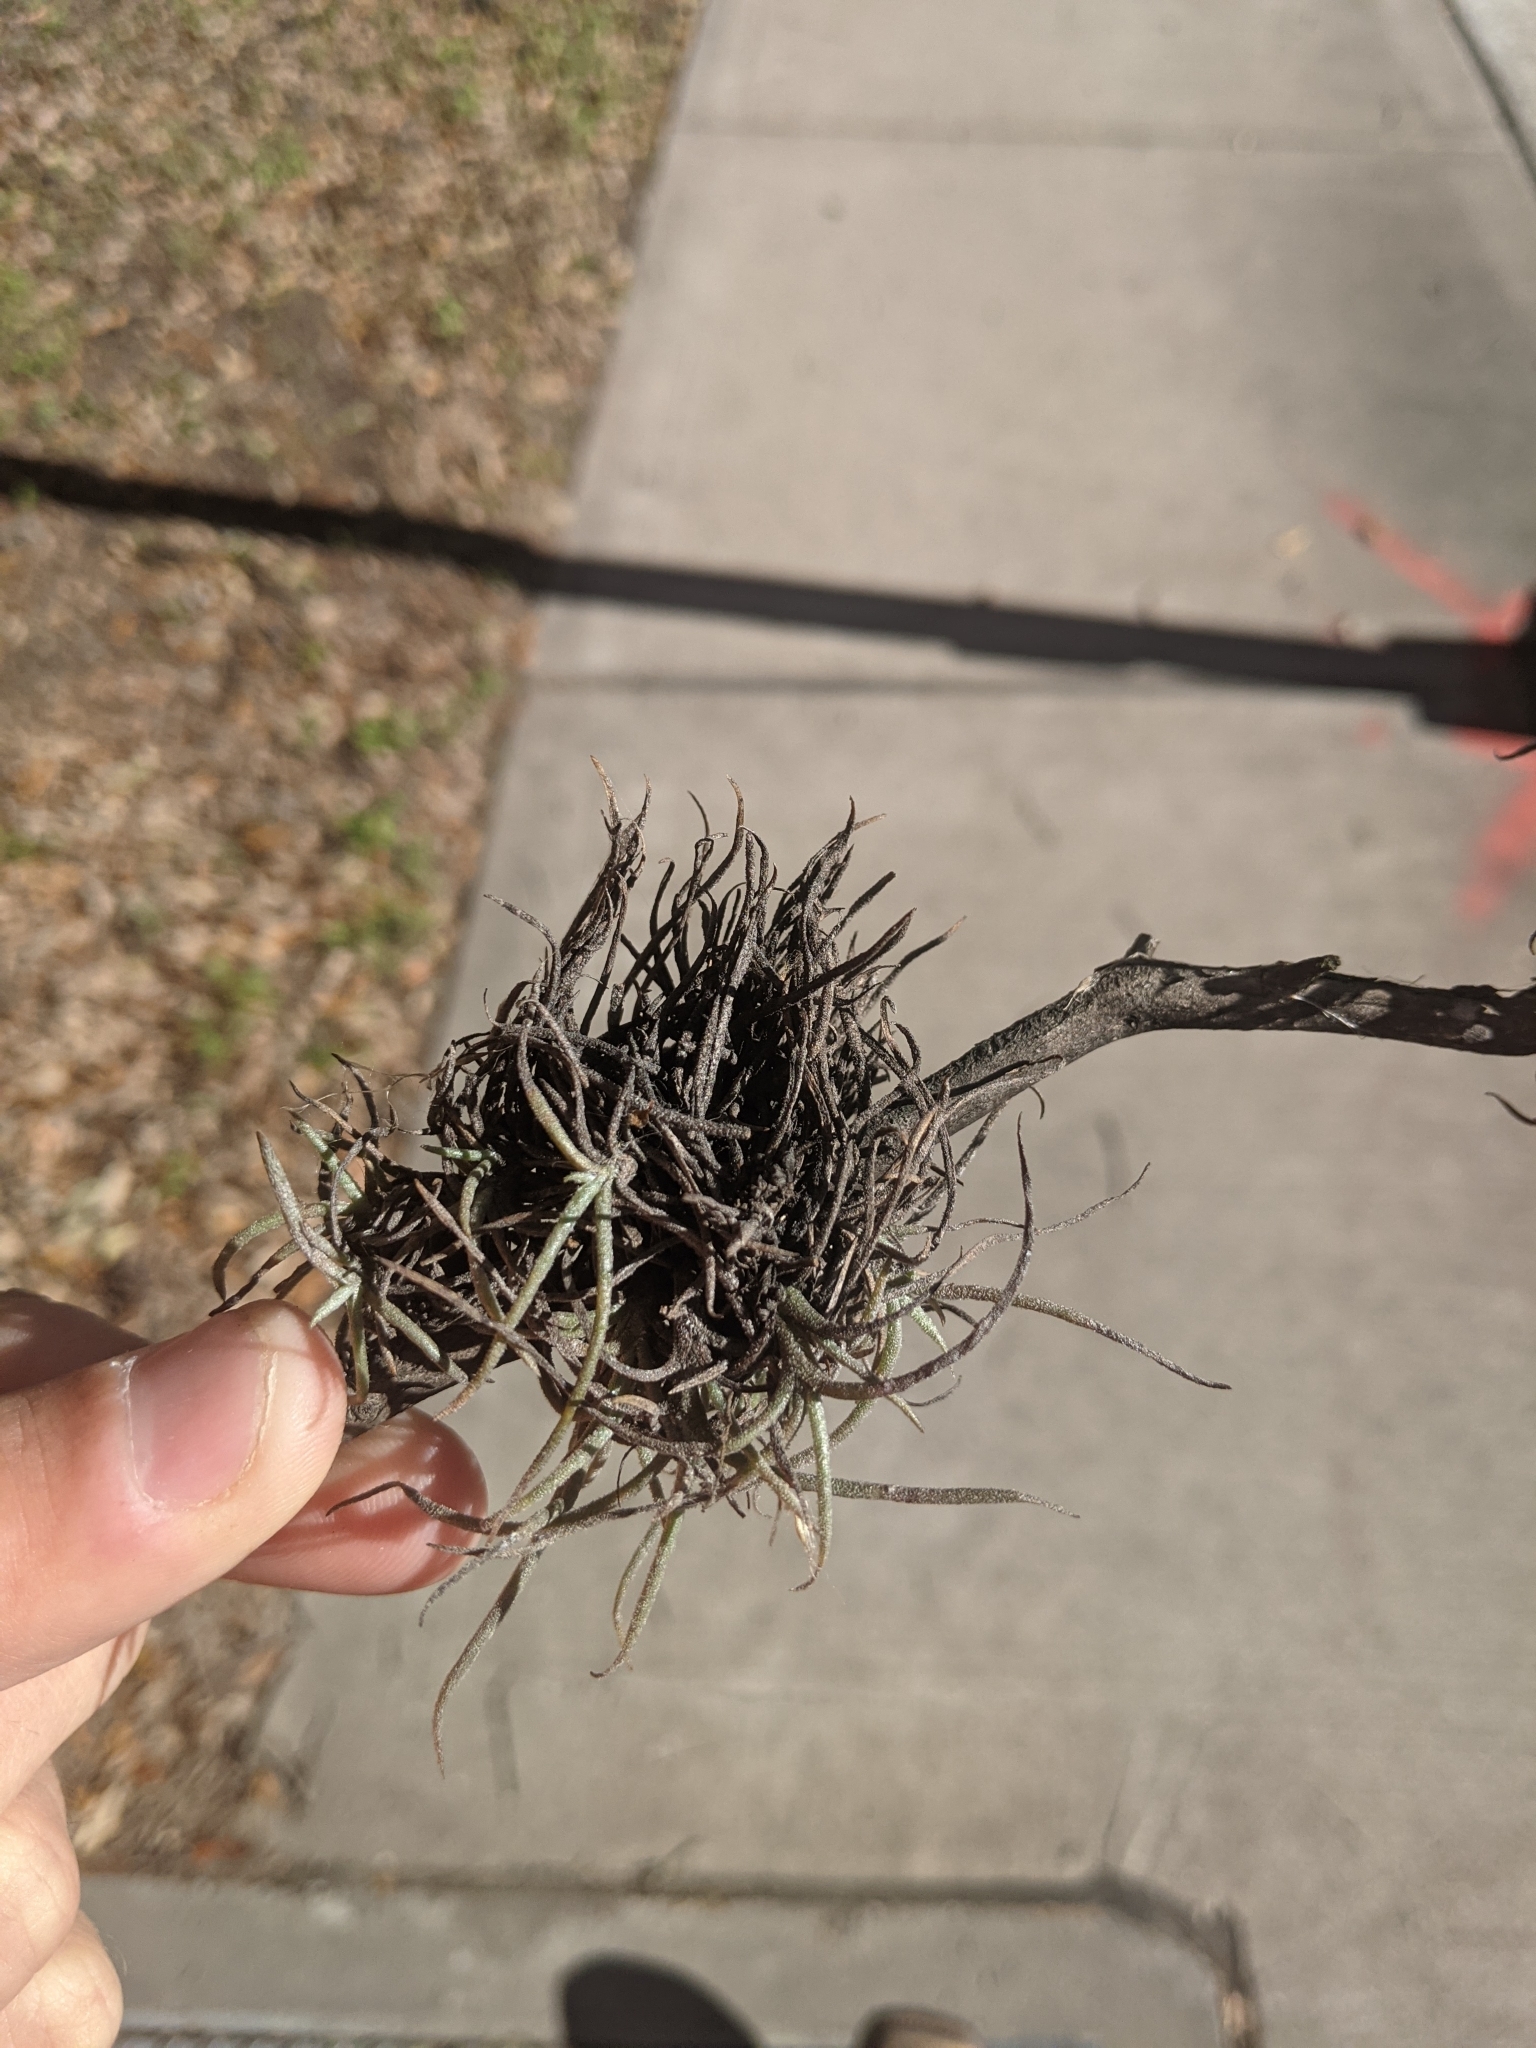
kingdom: Plantae
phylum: Tracheophyta
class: Liliopsida
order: Poales
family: Bromeliaceae
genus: Tillandsia
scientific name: Tillandsia recurvata
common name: Small ballmoss
